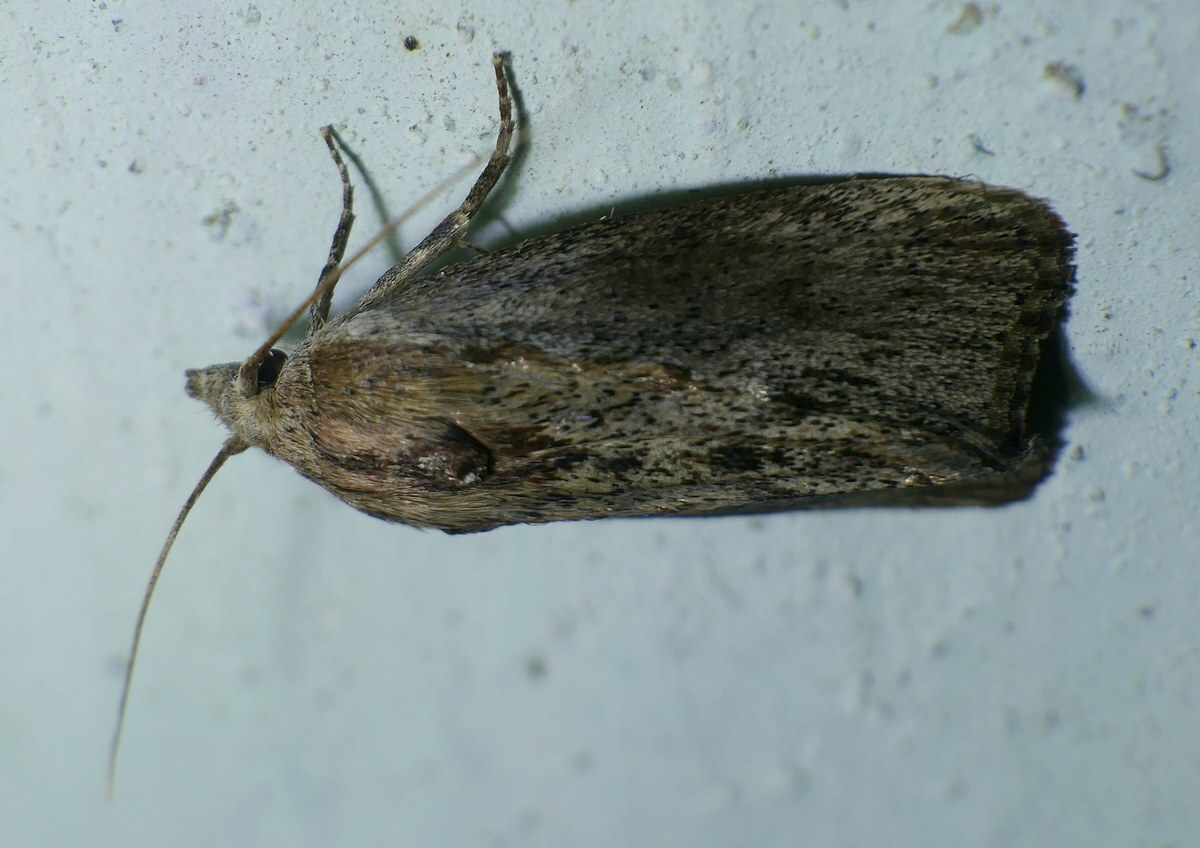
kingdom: Animalia
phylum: Arthropoda
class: Insecta
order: Lepidoptera
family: Pyralidae
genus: Galleria
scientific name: Galleria mellonella
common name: Greater wax moth
